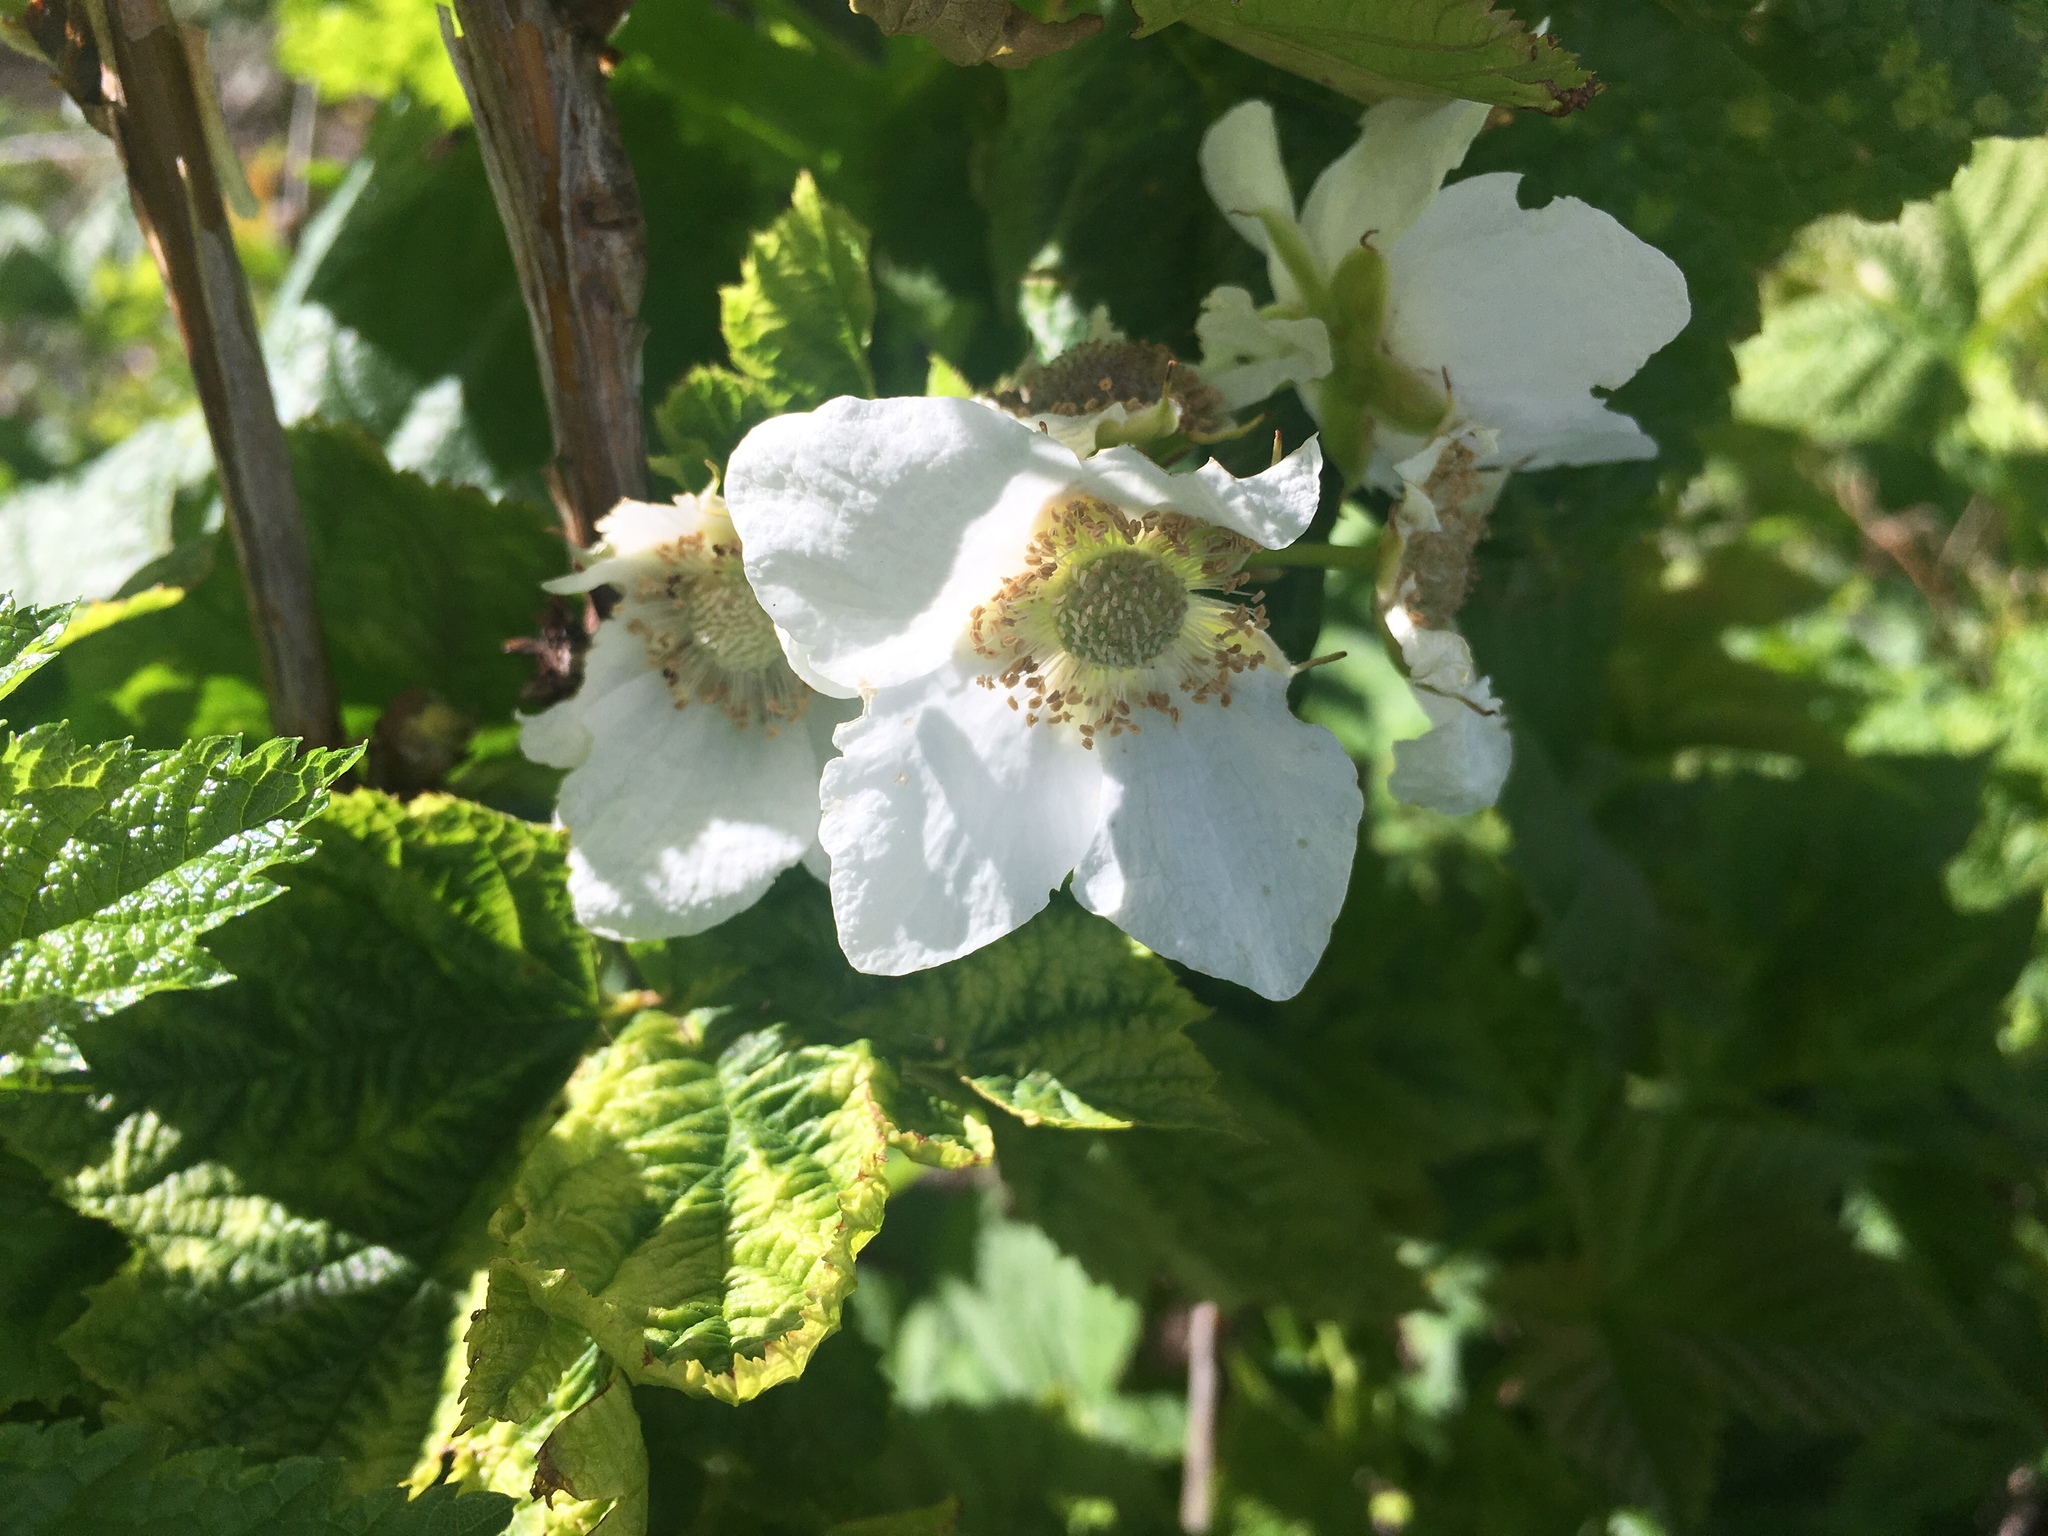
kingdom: Plantae
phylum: Tracheophyta
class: Magnoliopsida
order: Rosales
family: Rosaceae
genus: Rubus
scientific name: Rubus parviflorus
